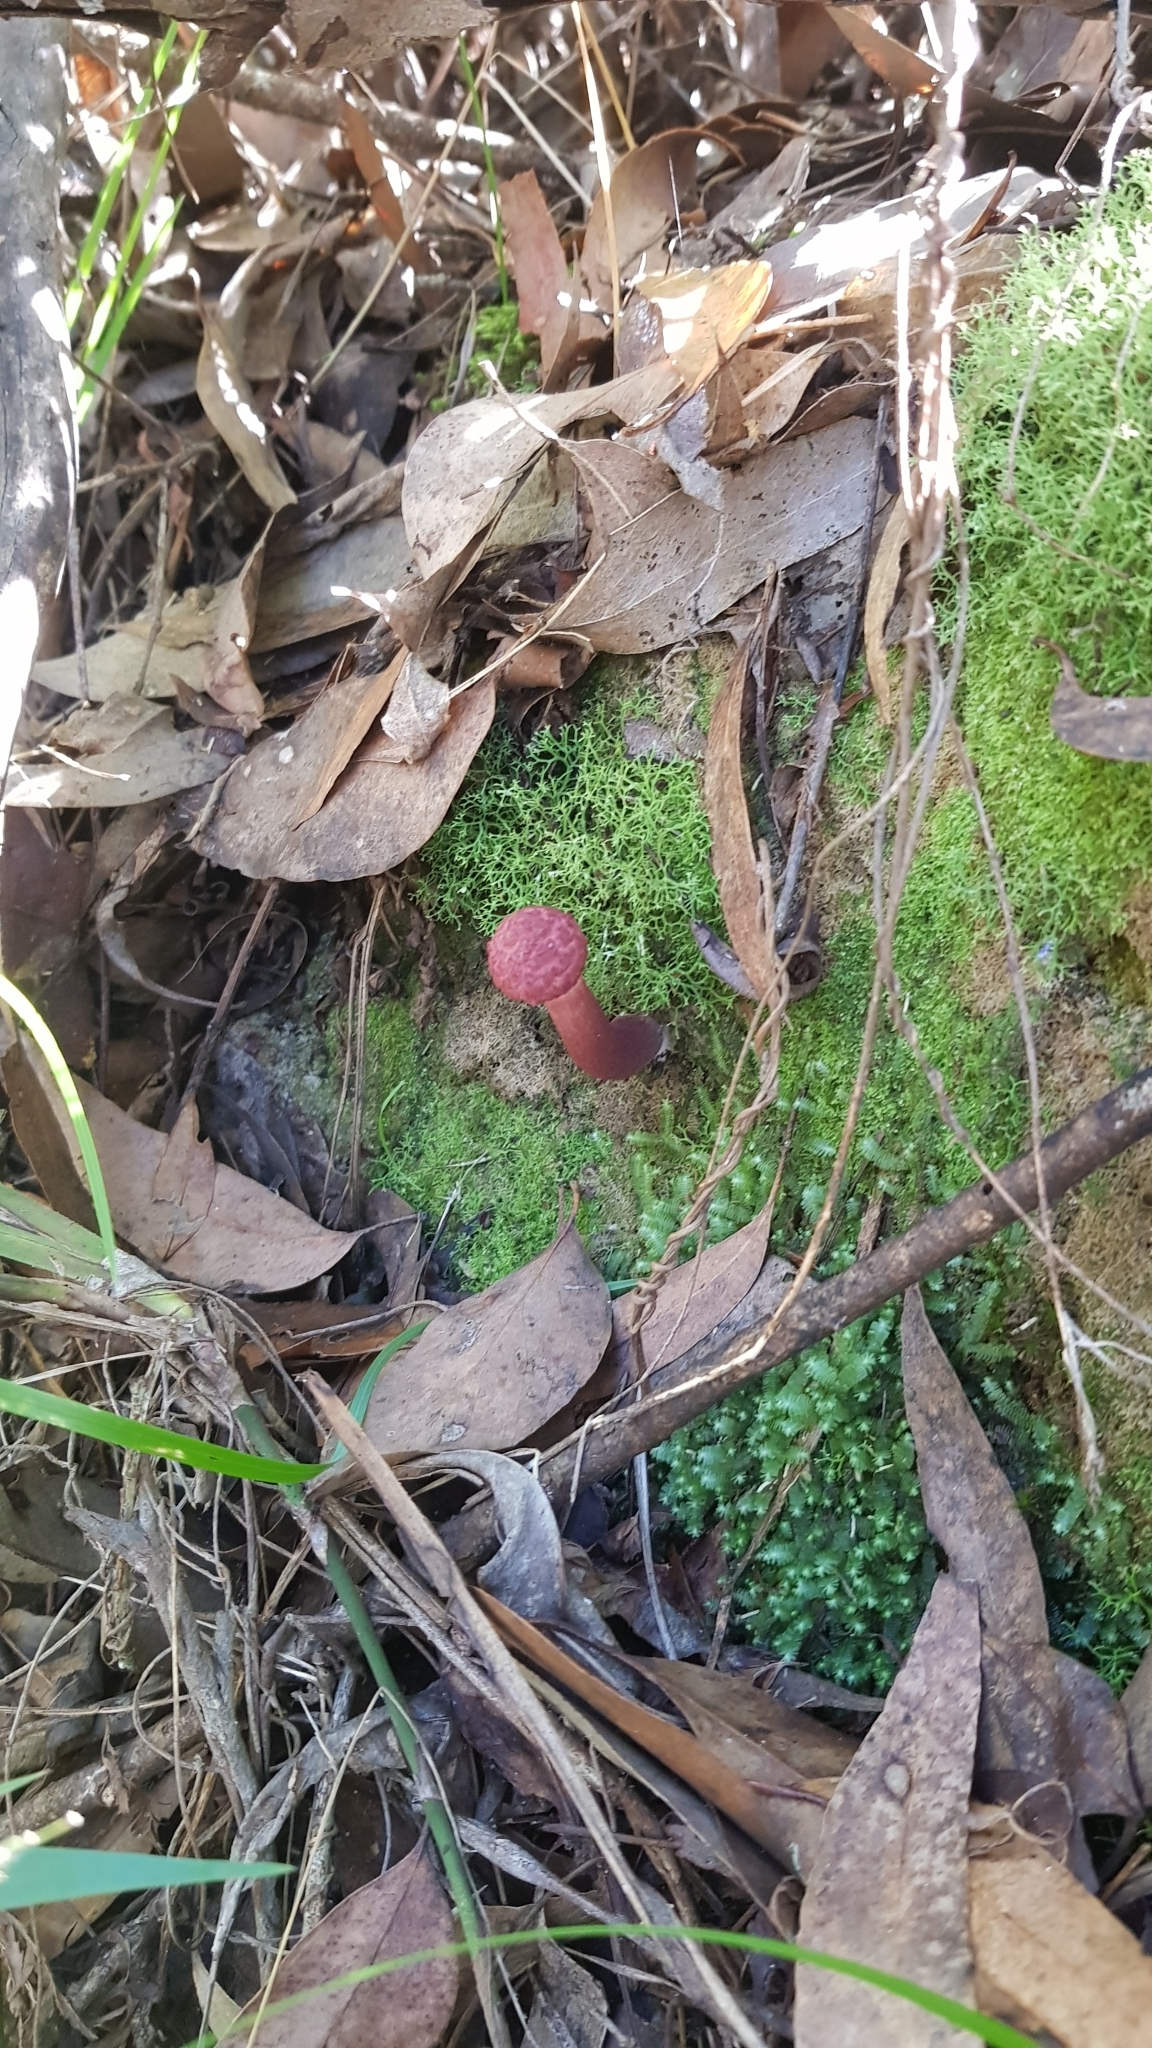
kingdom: Fungi
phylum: Basidiomycota
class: Agaricomycetes
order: Boletales
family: Boletaceae
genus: Boletellus
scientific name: Boletellus emodensis
